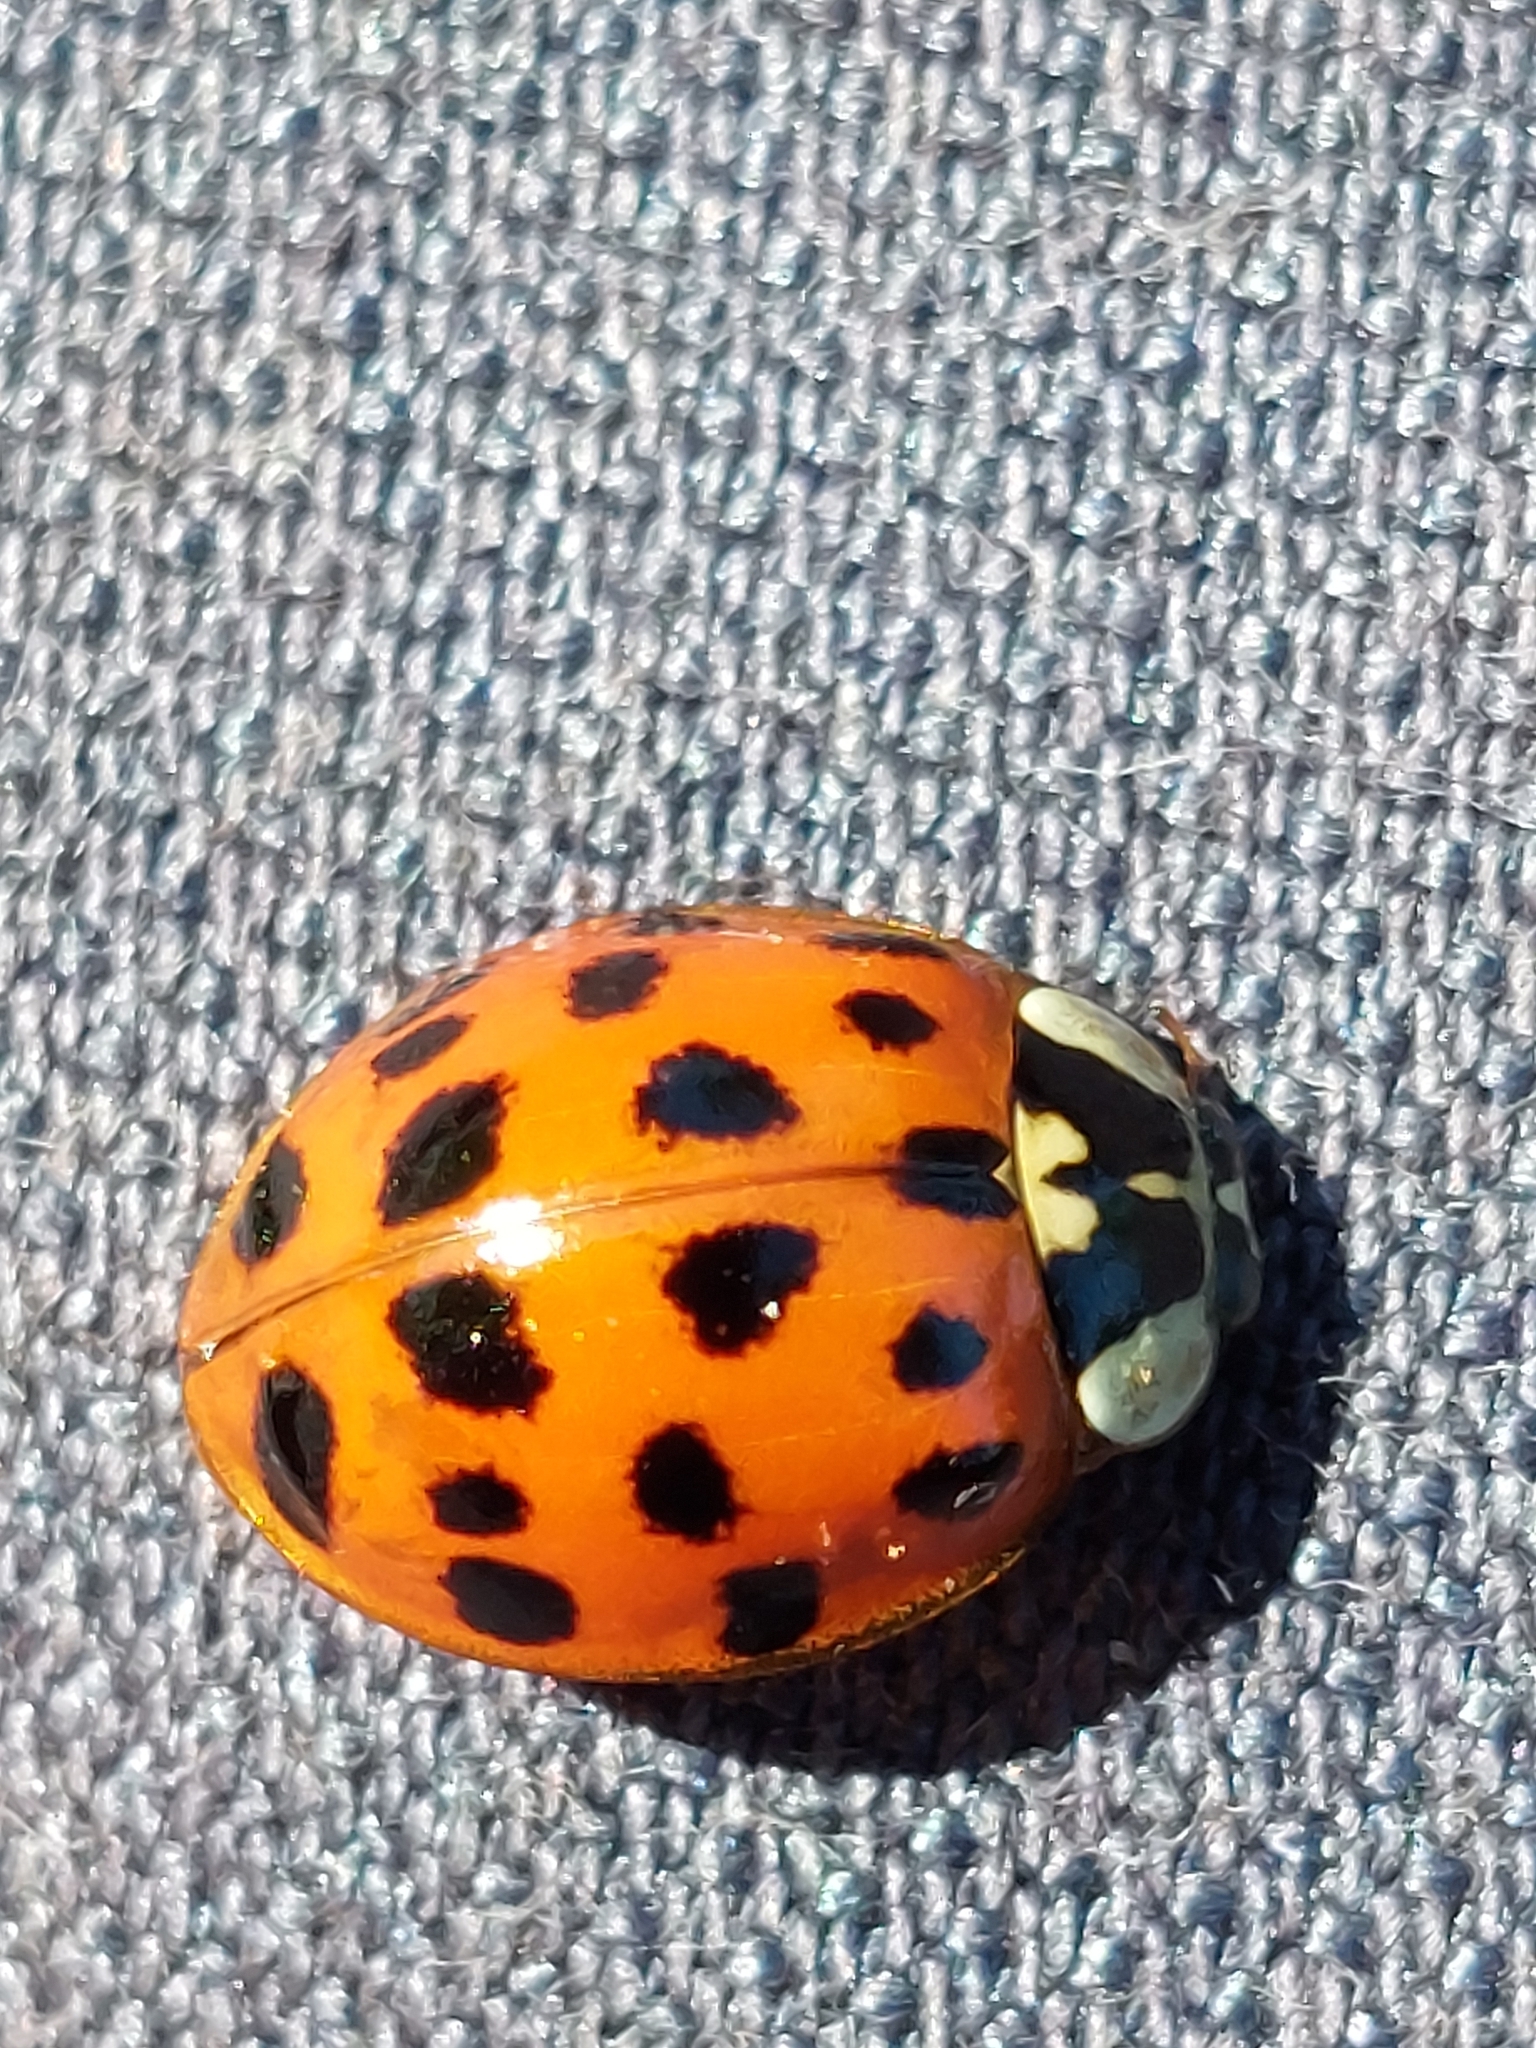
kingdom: Animalia
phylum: Arthropoda
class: Insecta
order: Coleoptera
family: Coccinellidae
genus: Harmonia
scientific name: Harmonia axyridis
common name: Harlequin ladybird
